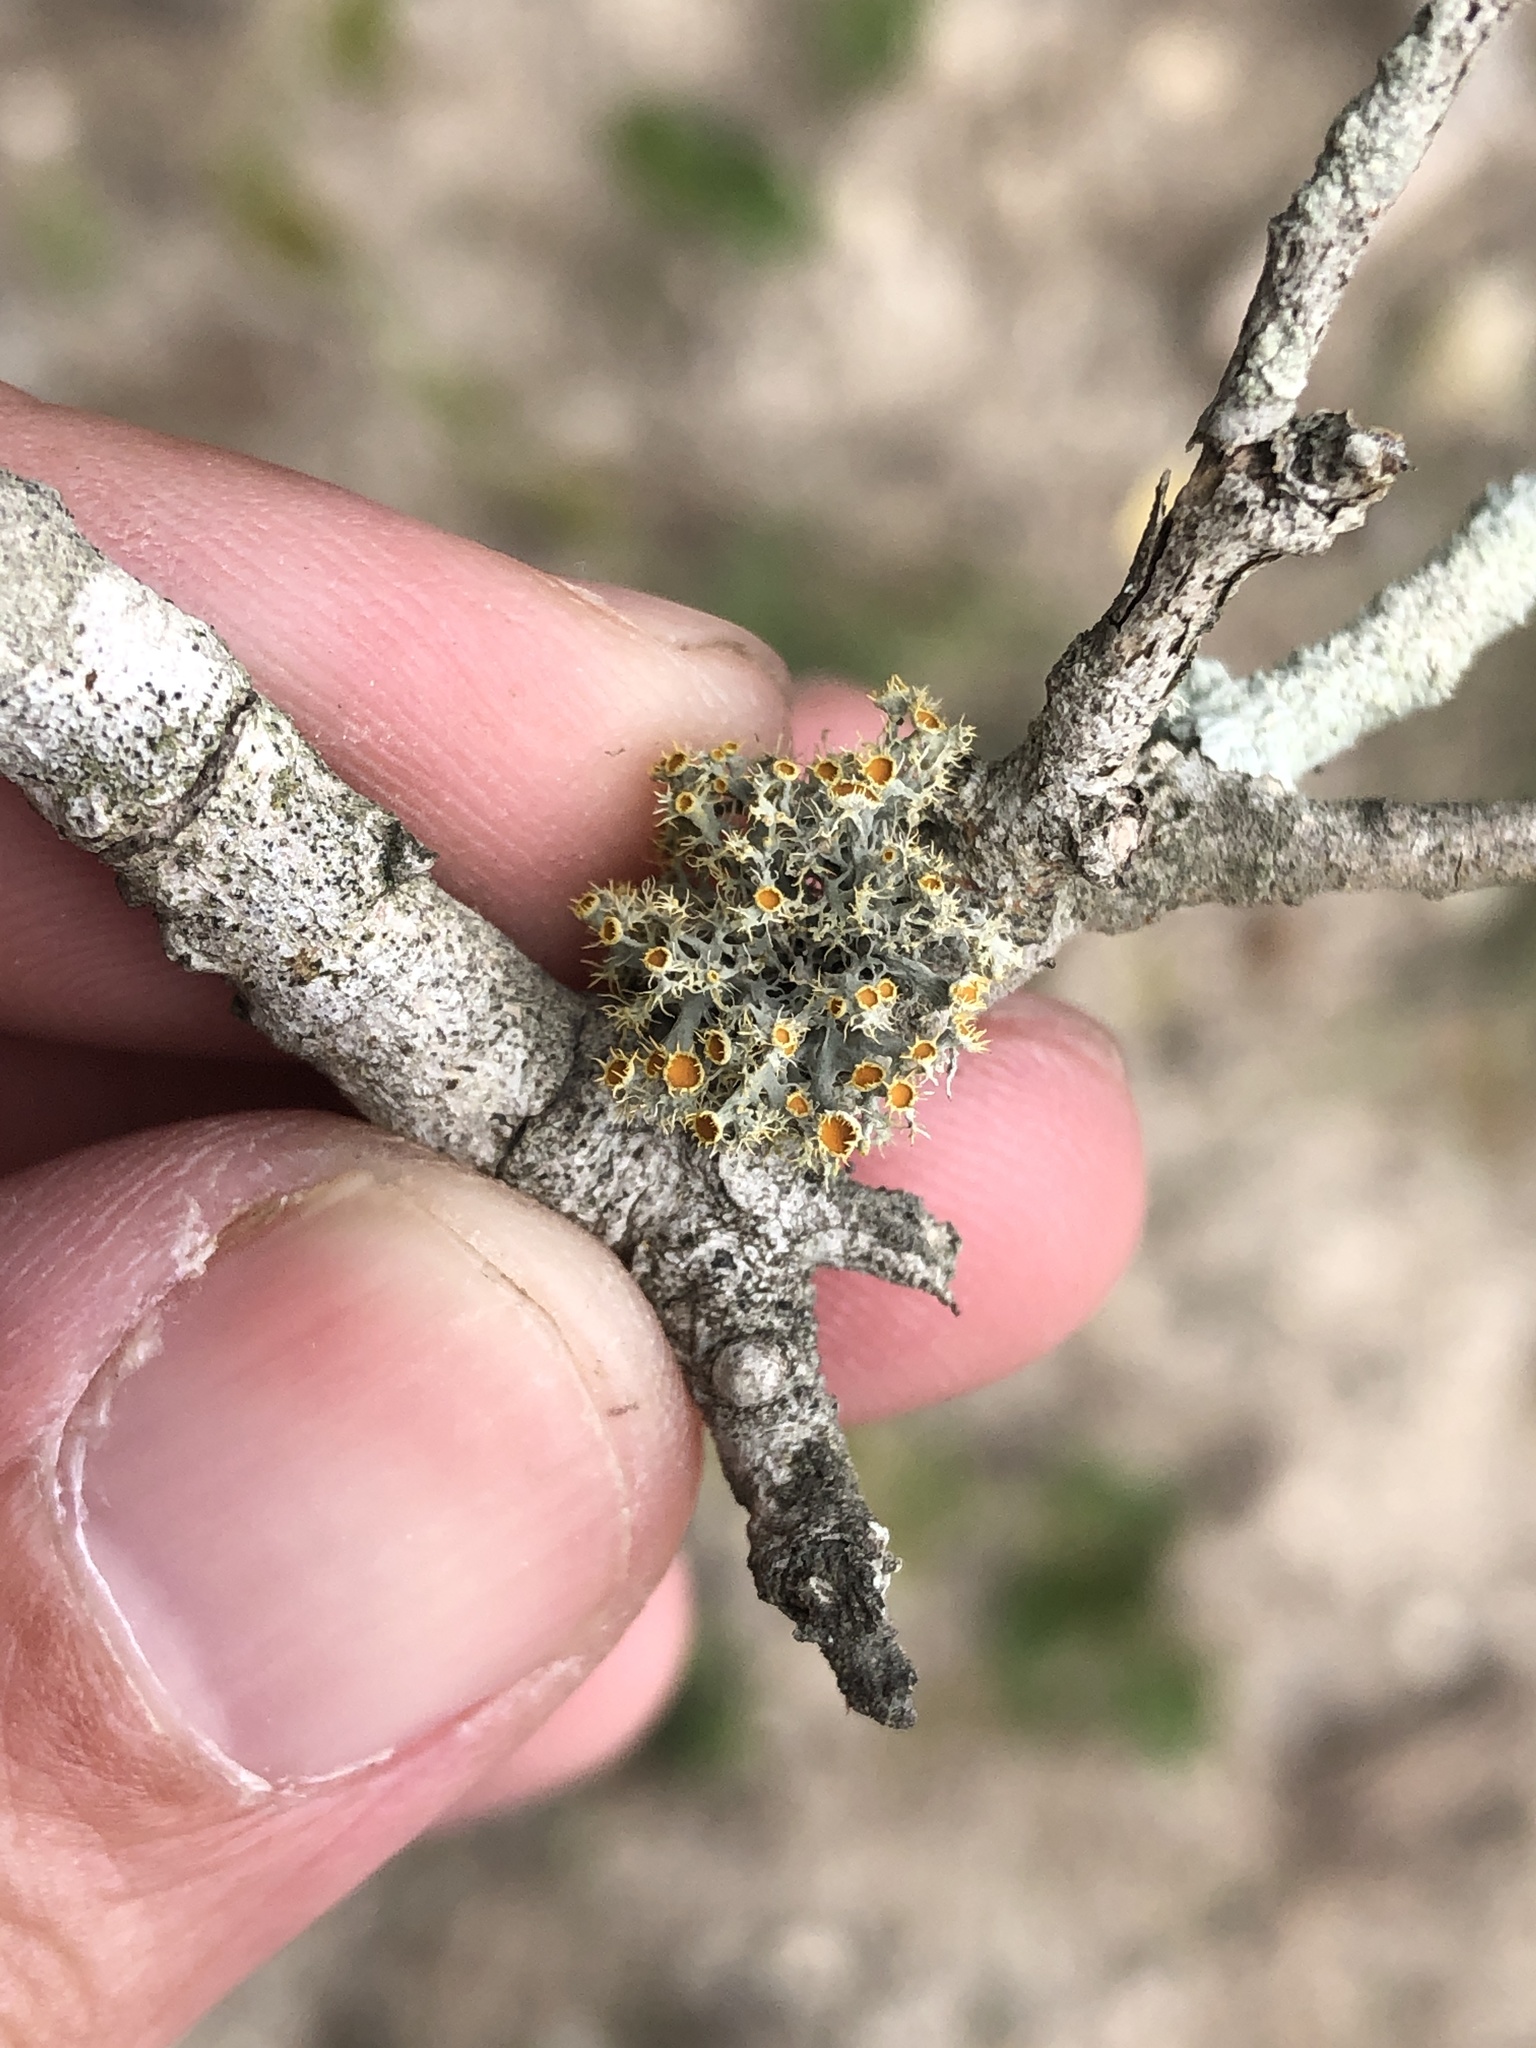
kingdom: Fungi
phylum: Ascomycota
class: Lecanoromycetes
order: Teloschistales
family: Teloschistaceae
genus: Niorma
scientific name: Niorma chrysophthalma
